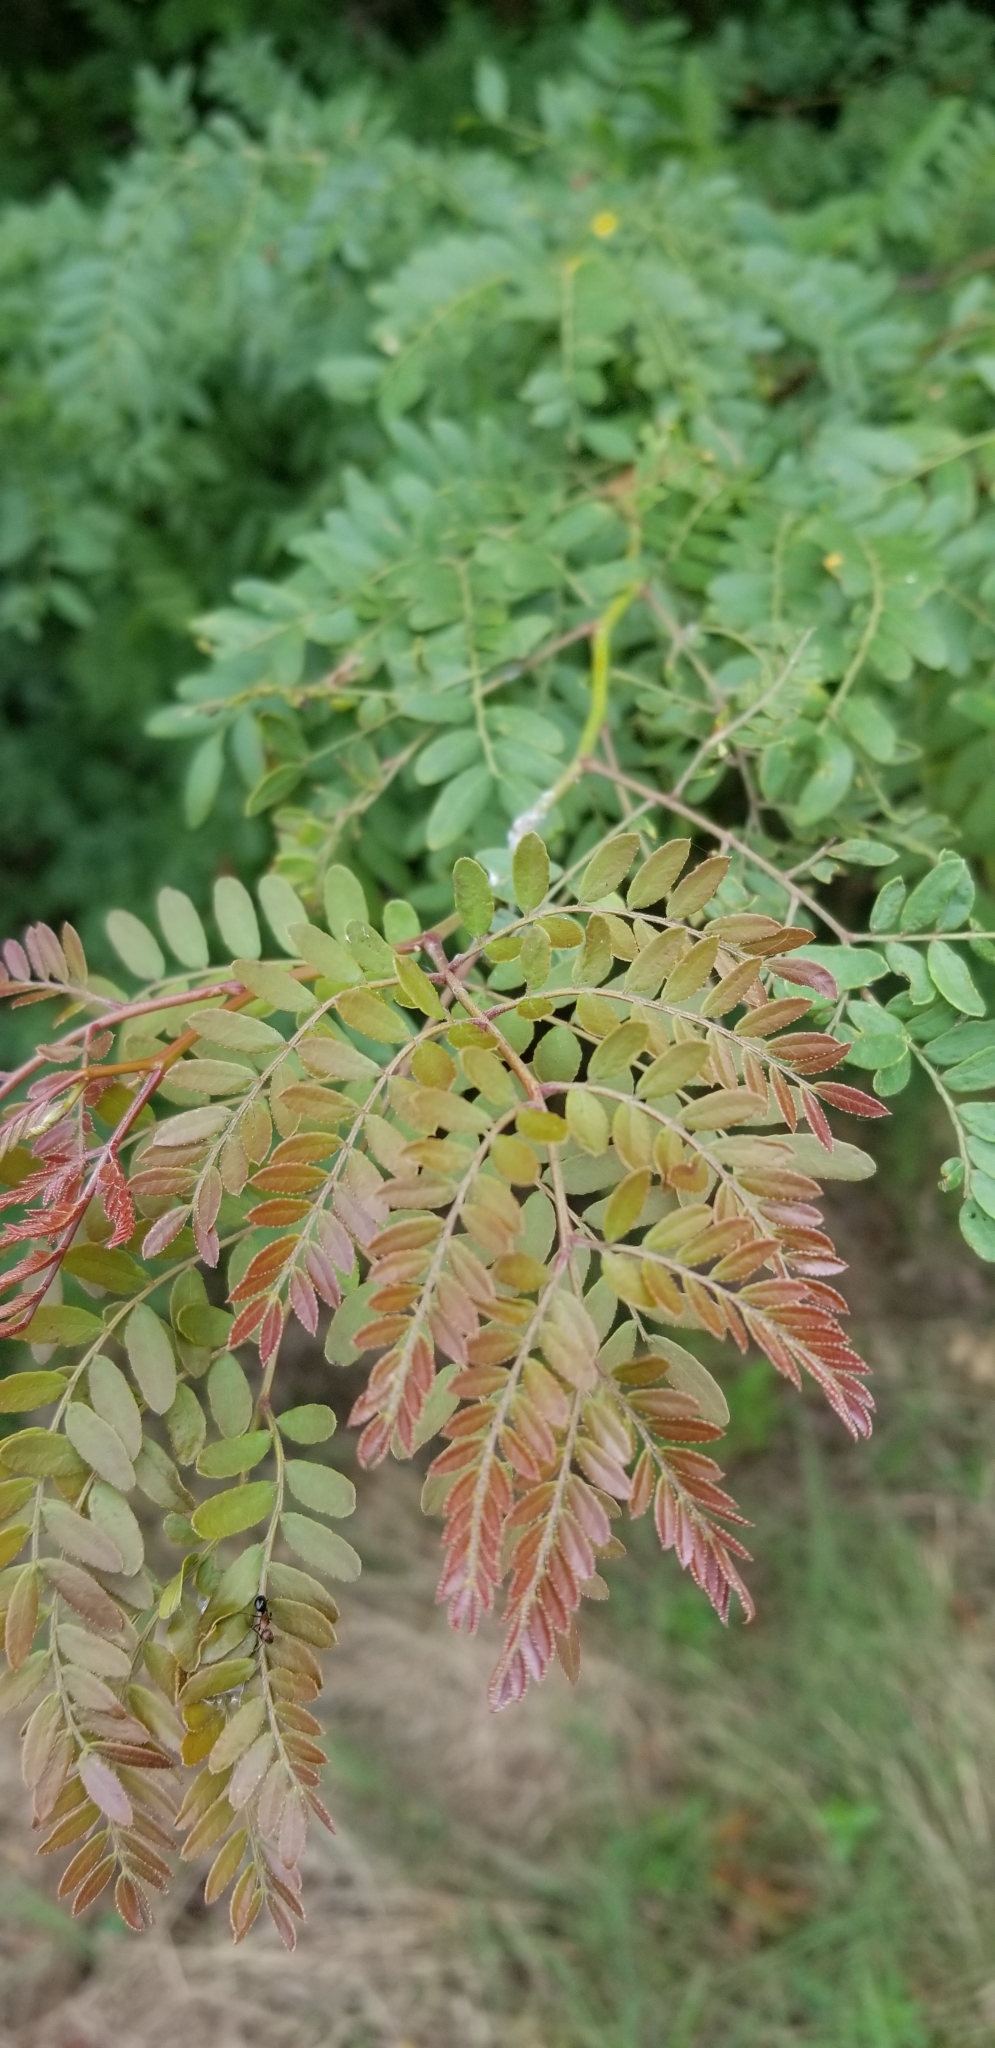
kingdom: Plantae
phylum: Tracheophyta
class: Magnoliopsida
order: Fabales
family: Fabaceae
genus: Gleditsia
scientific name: Gleditsia triacanthos
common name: Common honeylocust
